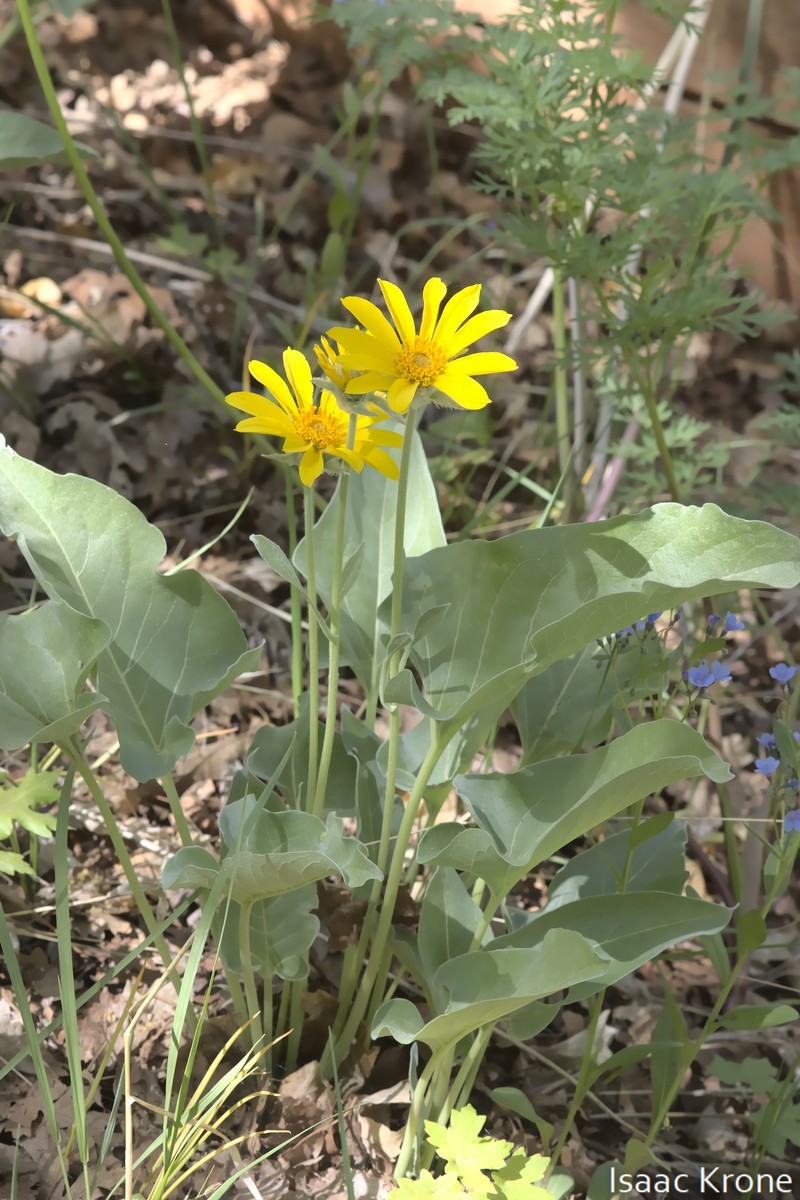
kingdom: Plantae
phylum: Tracheophyta
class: Magnoliopsida
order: Asterales
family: Asteraceae
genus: Wyethia
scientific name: Wyethia sagittata
